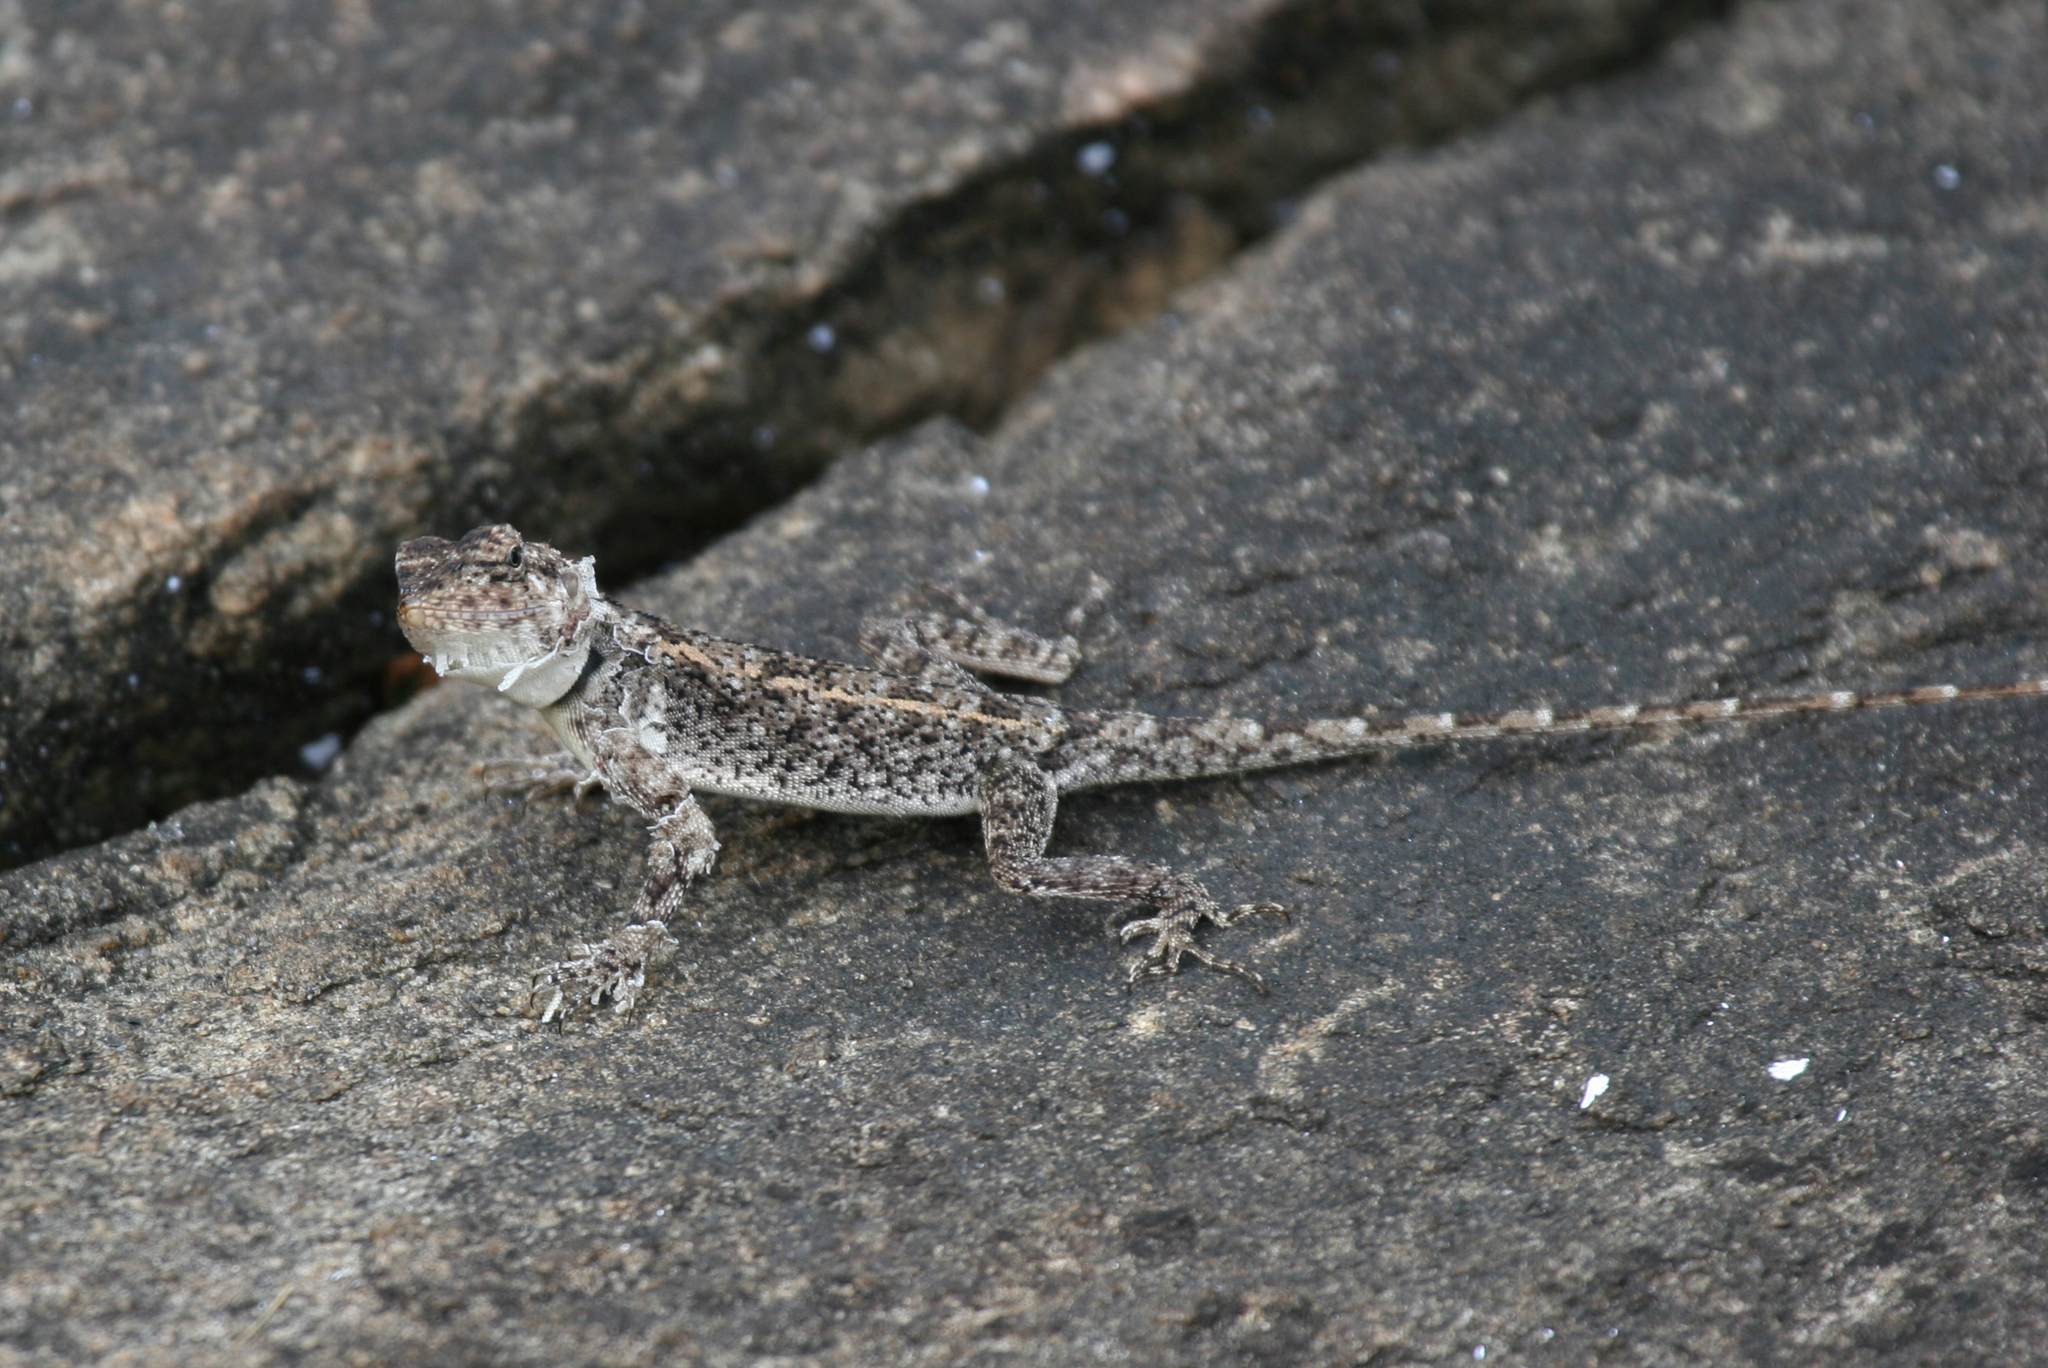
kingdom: Animalia
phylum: Chordata
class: Squamata
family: Agamidae
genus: Psammophilus
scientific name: Psammophilus dorsalis
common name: South indian rock agama
